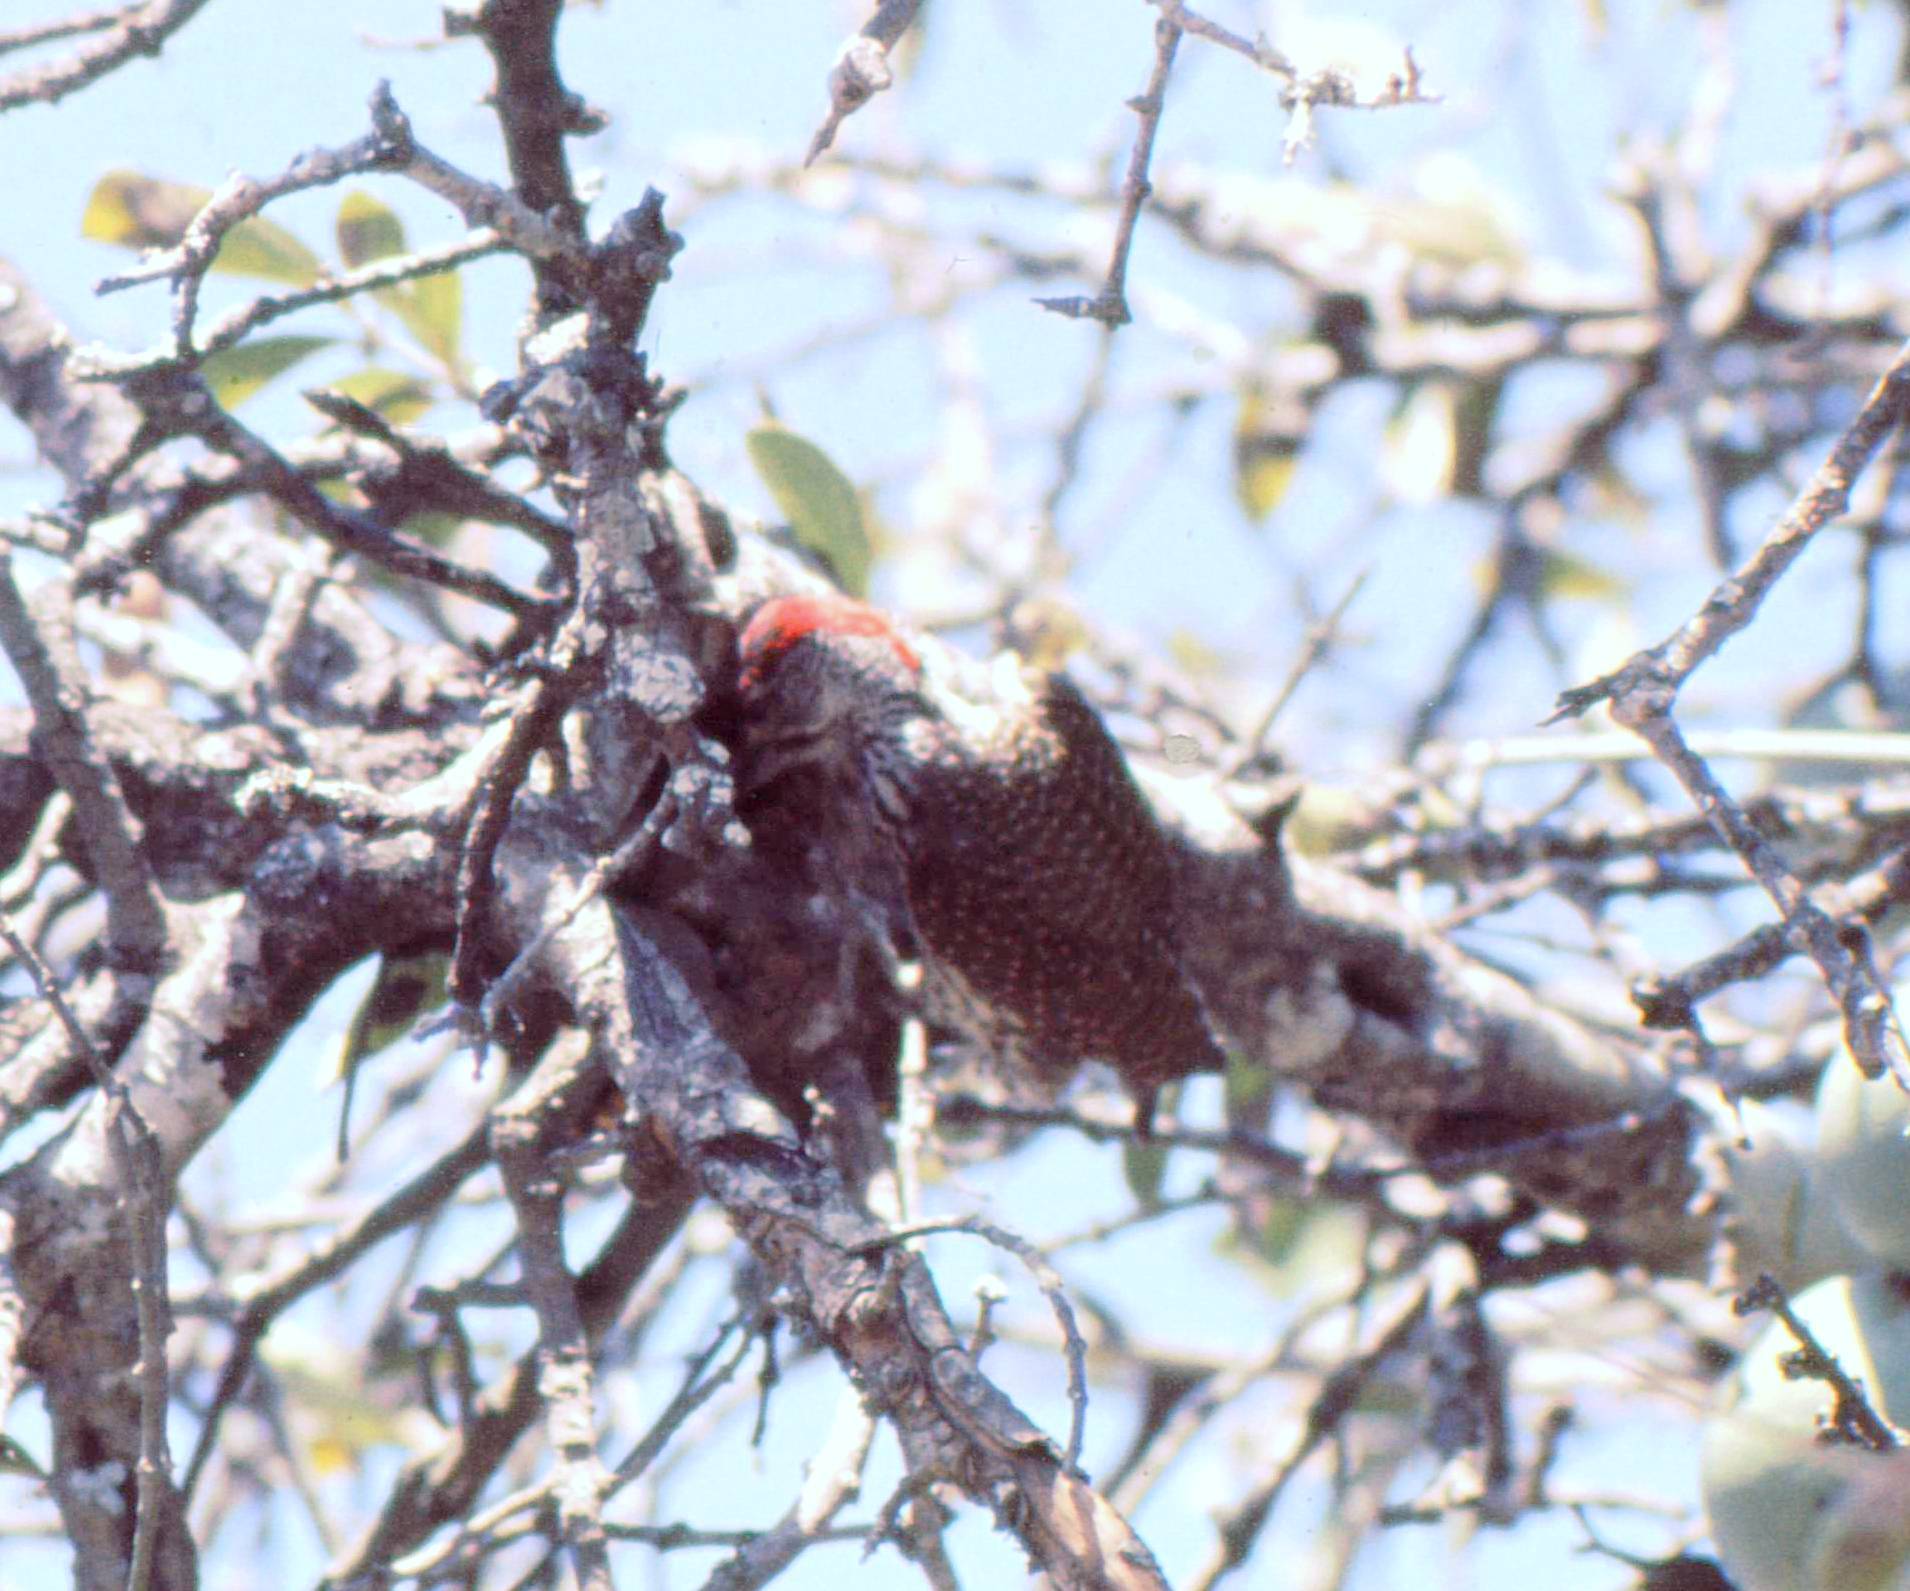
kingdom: Animalia
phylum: Chordata
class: Aves
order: Piciformes
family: Picidae
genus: Campethera
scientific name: Campethera abingoni
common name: Golden-tailed woodpecker
